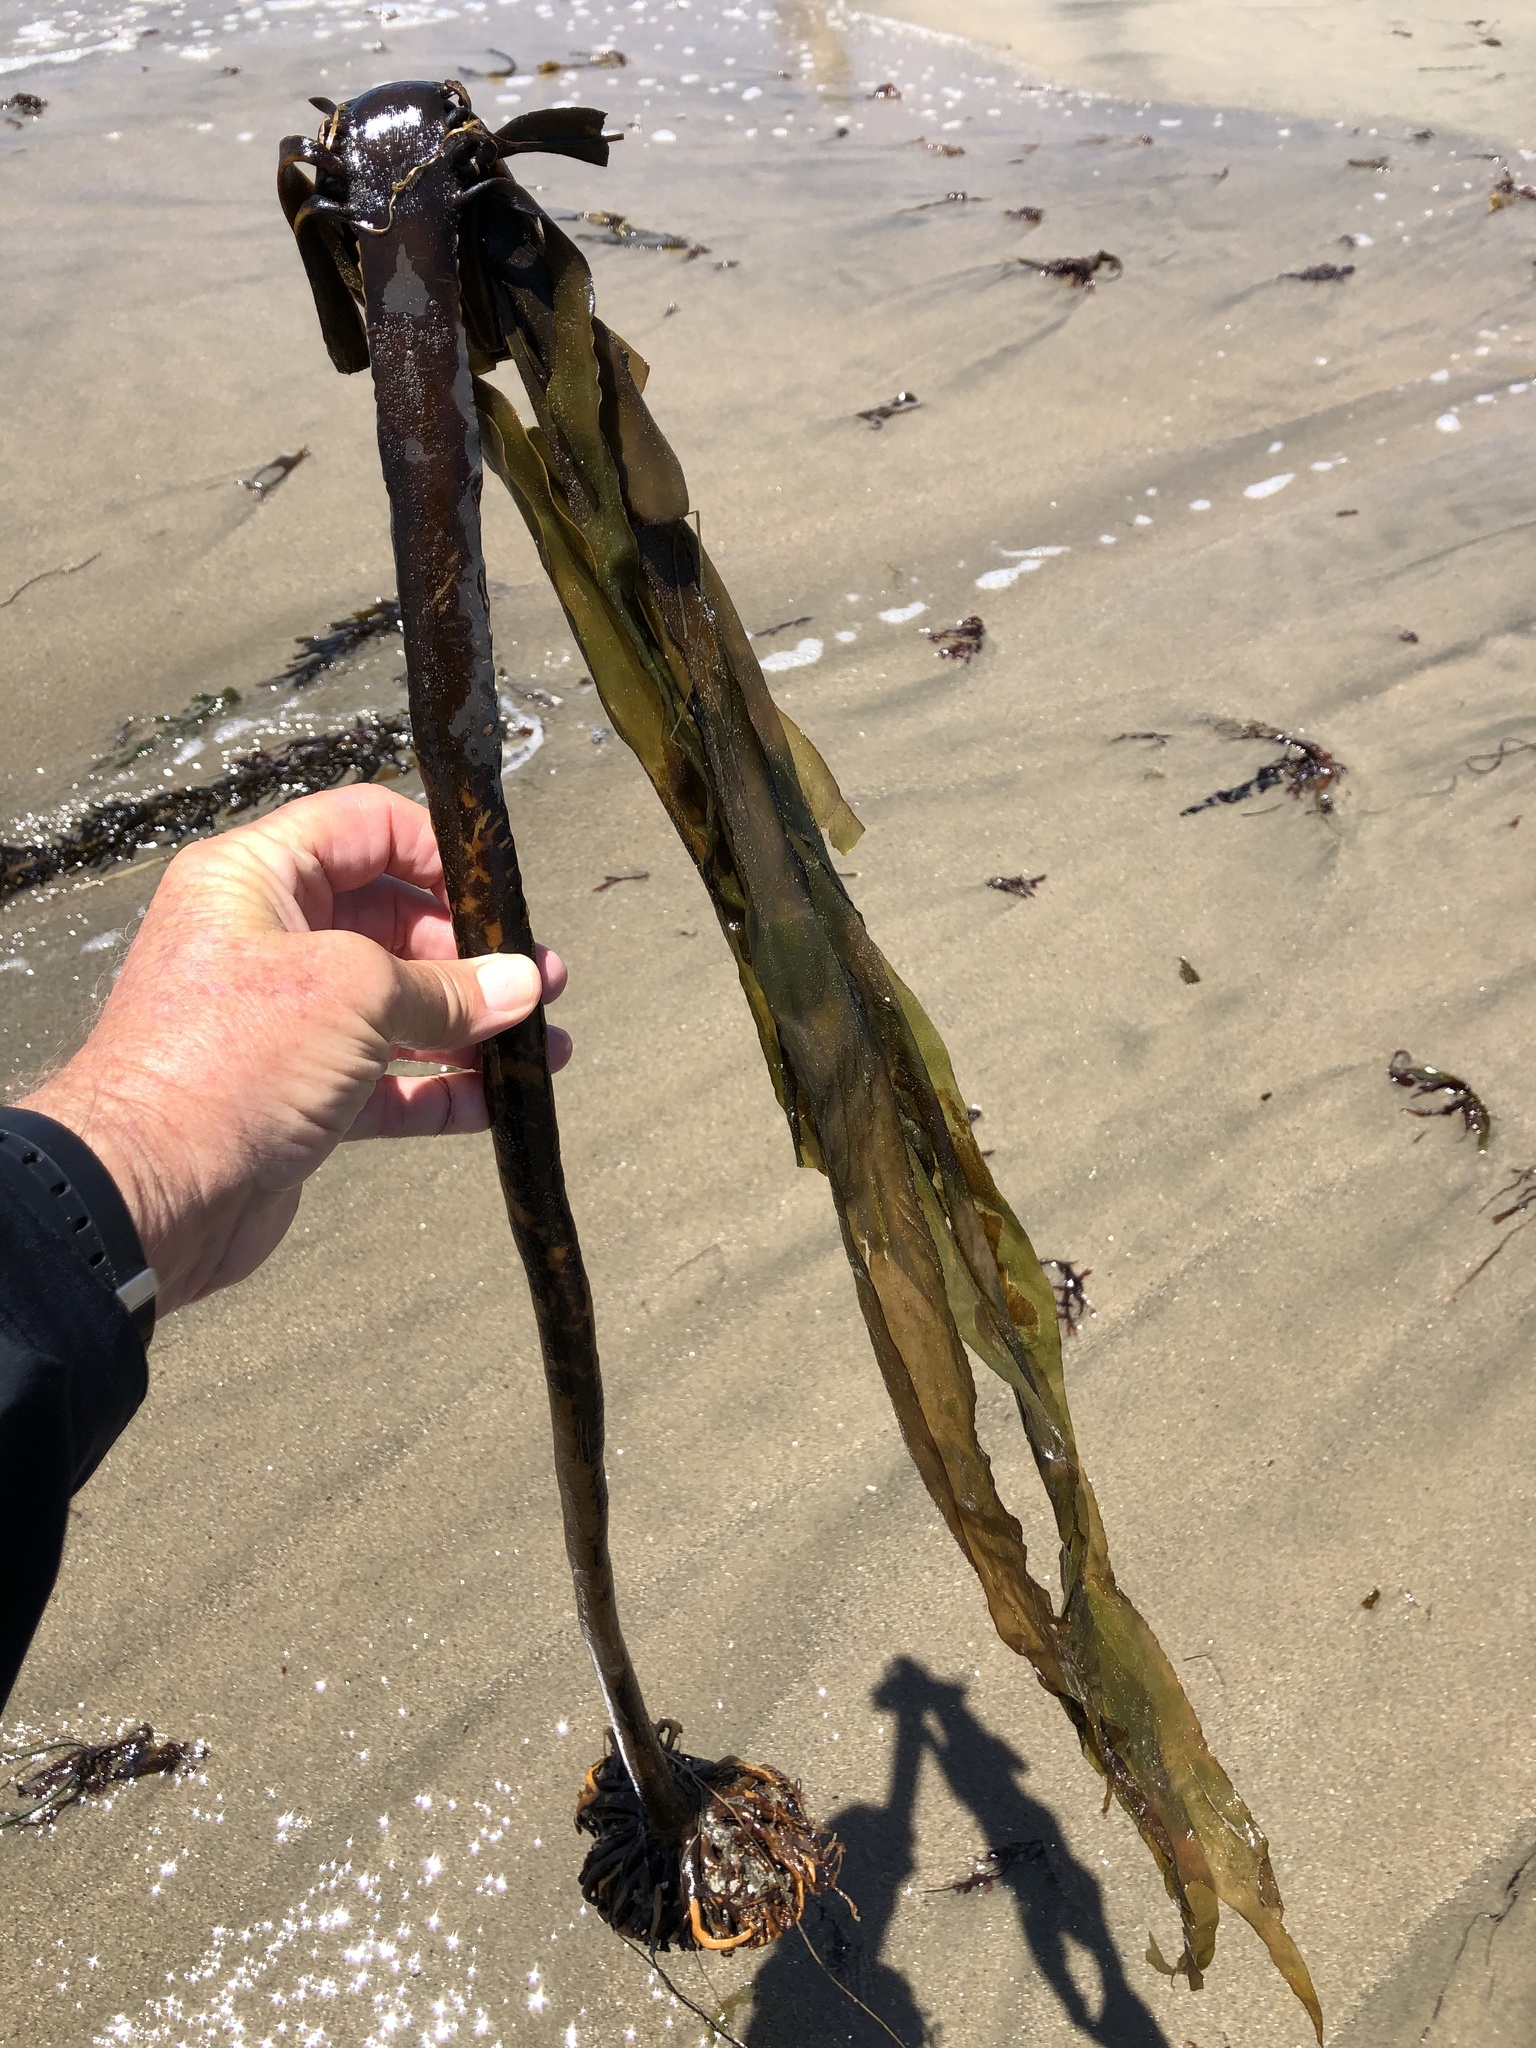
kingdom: Chromista
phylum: Ochrophyta
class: Phaeophyceae
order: Laminariales
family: Alariaceae
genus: Pterygophora
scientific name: Pterygophora californica
